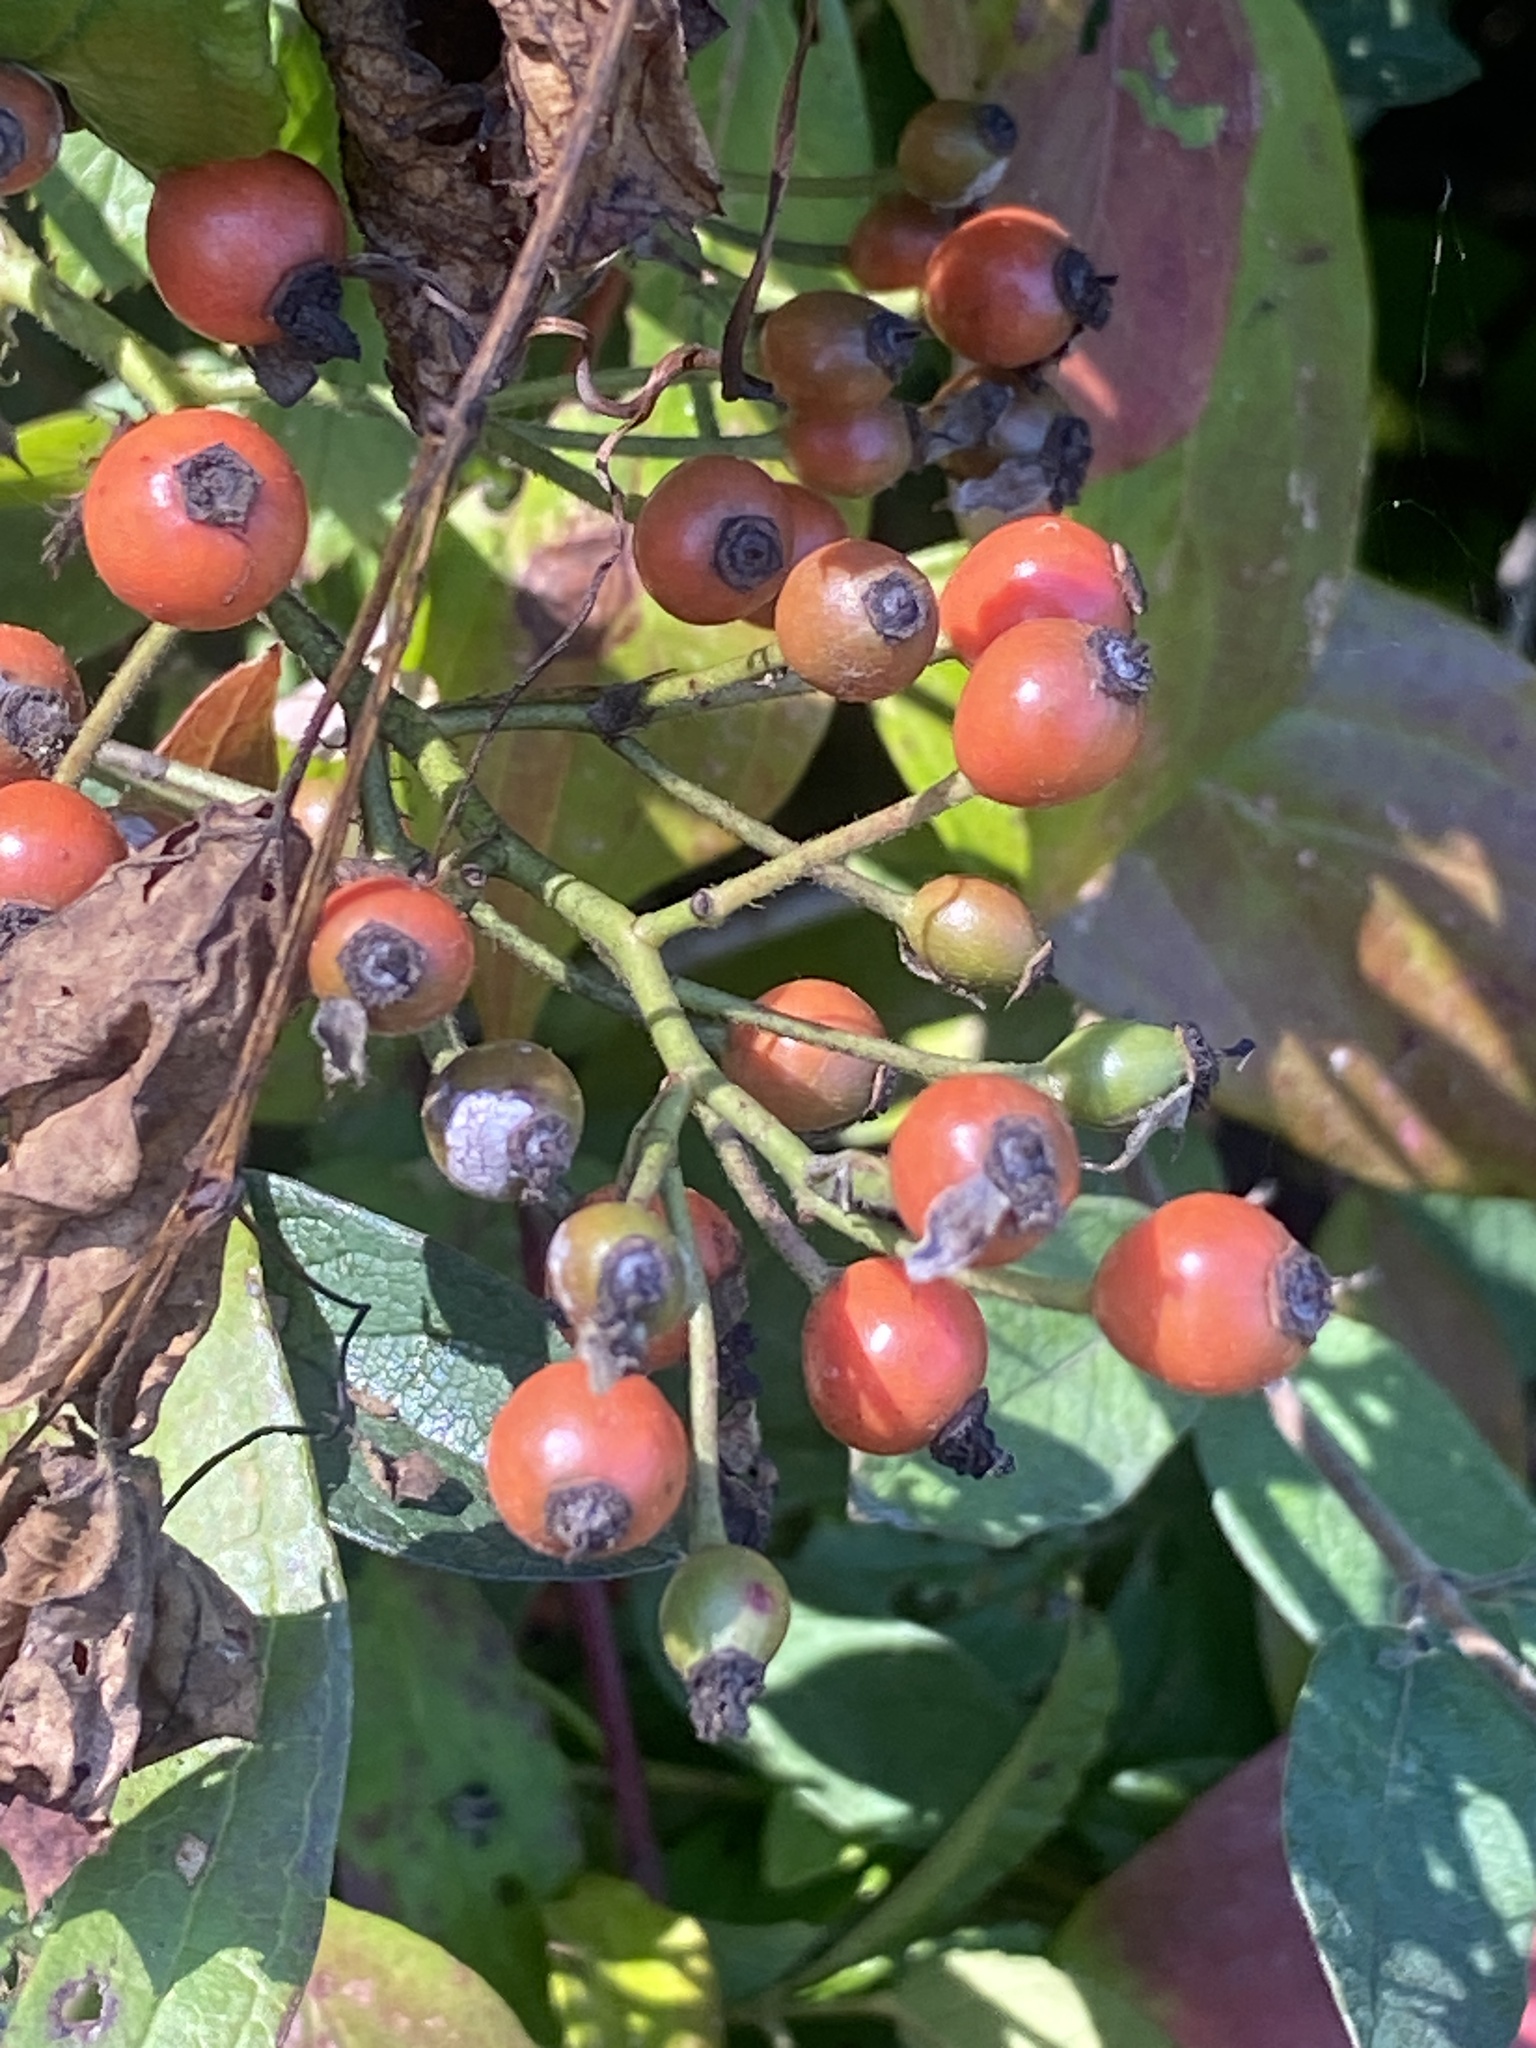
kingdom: Plantae
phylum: Tracheophyta
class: Magnoliopsida
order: Rosales
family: Rosaceae
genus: Rosa
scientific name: Rosa multiflora
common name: Multiflora rose
